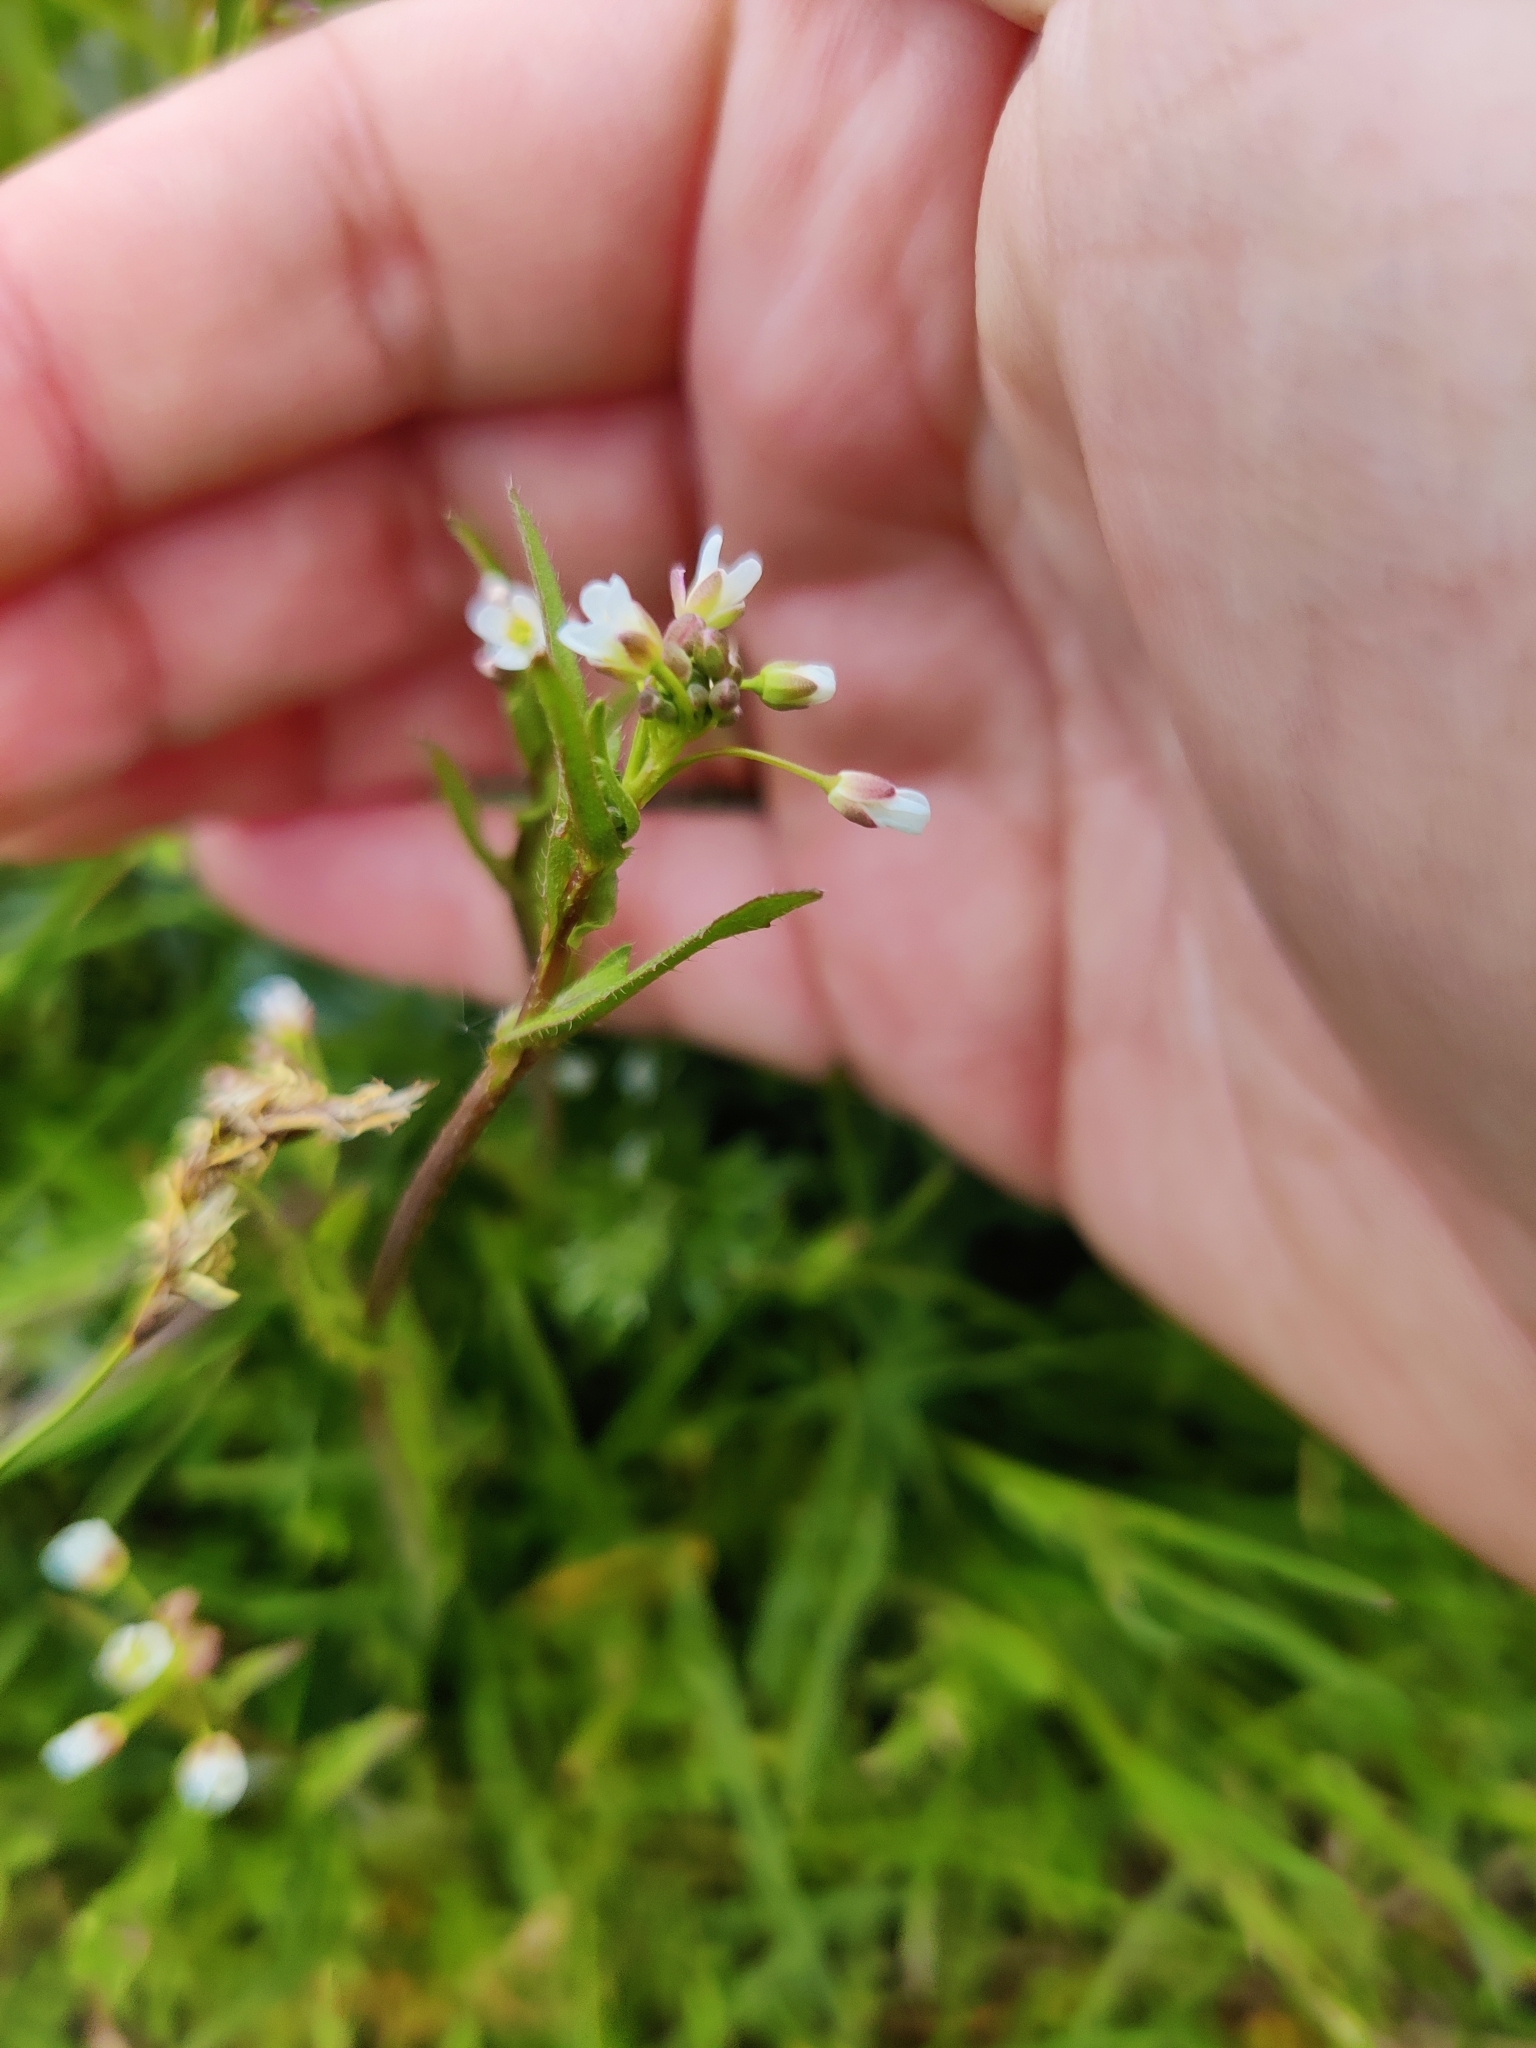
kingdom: Plantae
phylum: Tracheophyta
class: Magnoliopsida
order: Brassicales
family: Brassicaceae
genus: Capsella
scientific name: Capsella bursa-pastoris
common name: Shepherd's purse
